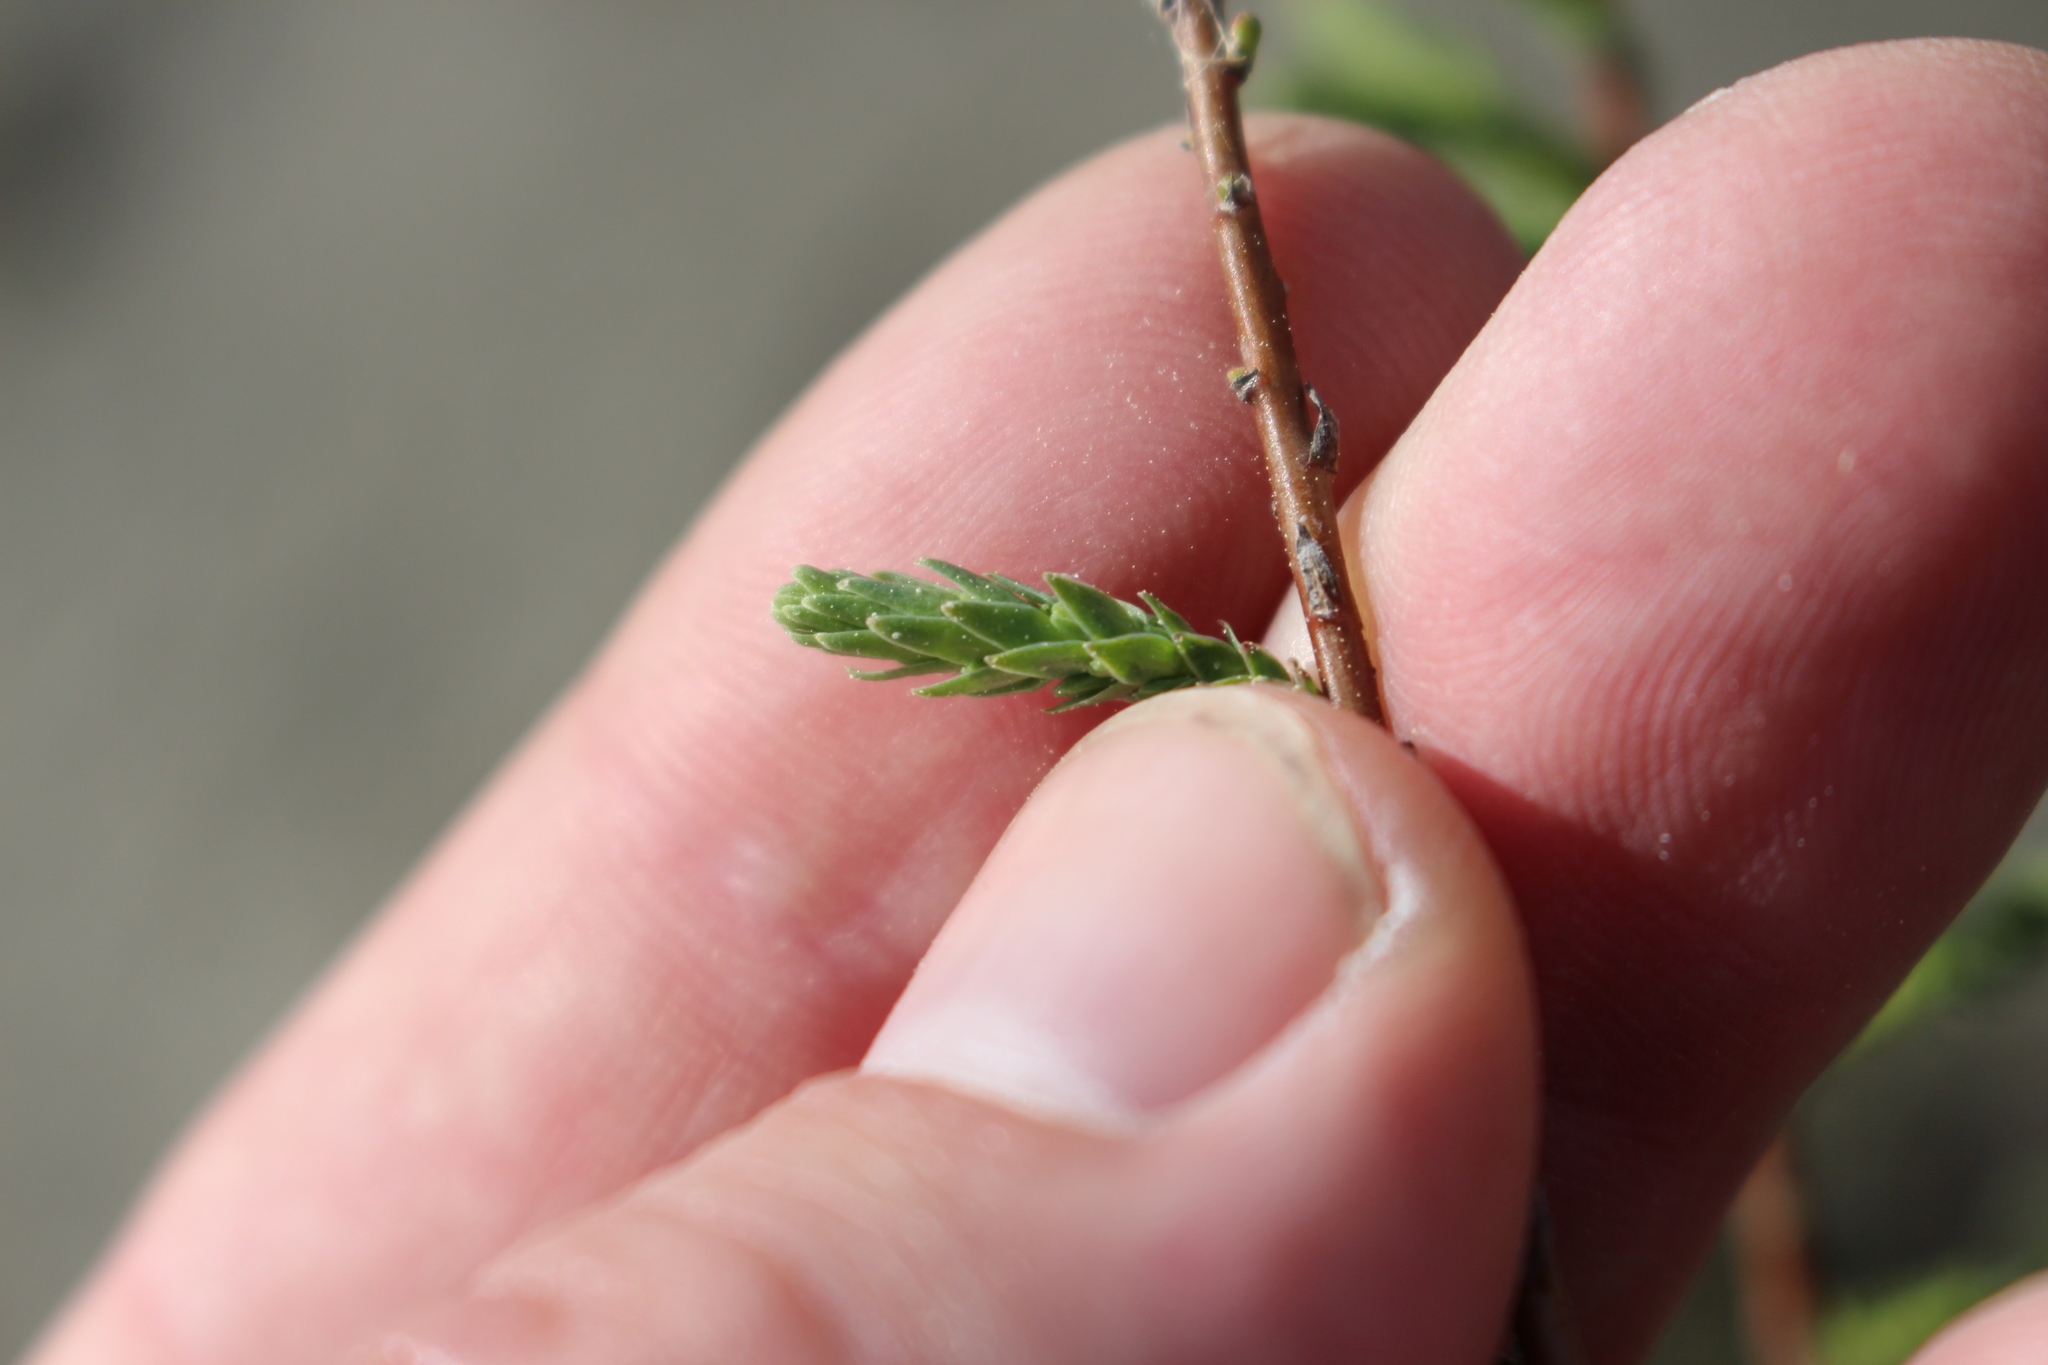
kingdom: Plantae
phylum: Tracheophyta
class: Magnoliopsida
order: Caryophyllales
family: Tamaricaceae
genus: Myricaria
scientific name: Myricaria germanica
